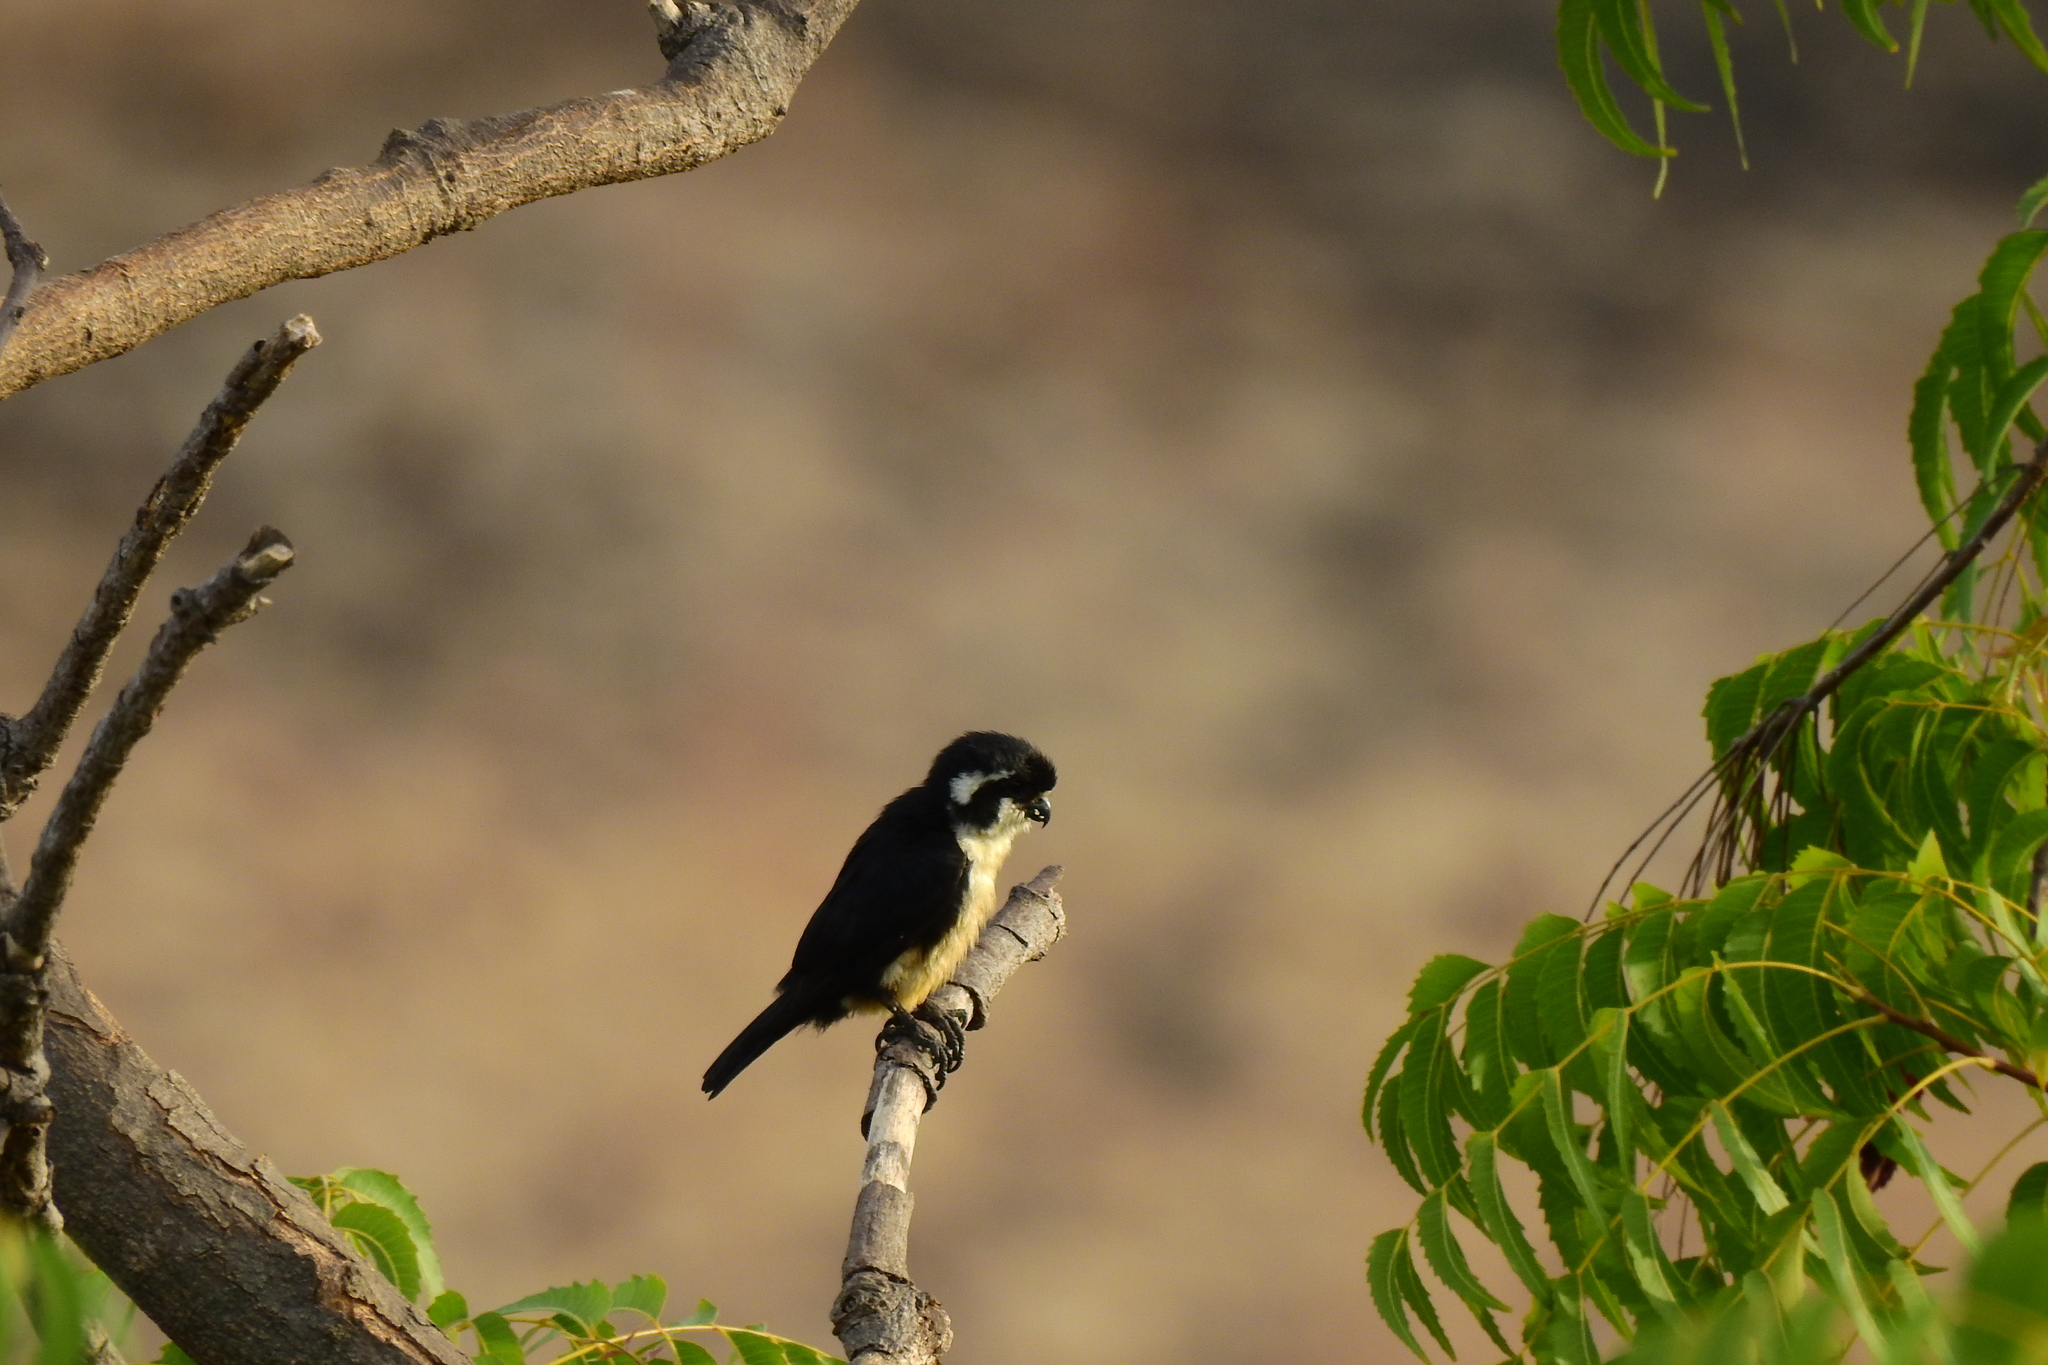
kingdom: Animalia
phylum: Chordata
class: Aves
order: Falconiformes
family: Falconidae
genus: Microhierax
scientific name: Microhierax fringillarius
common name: Black-thighed falconet
